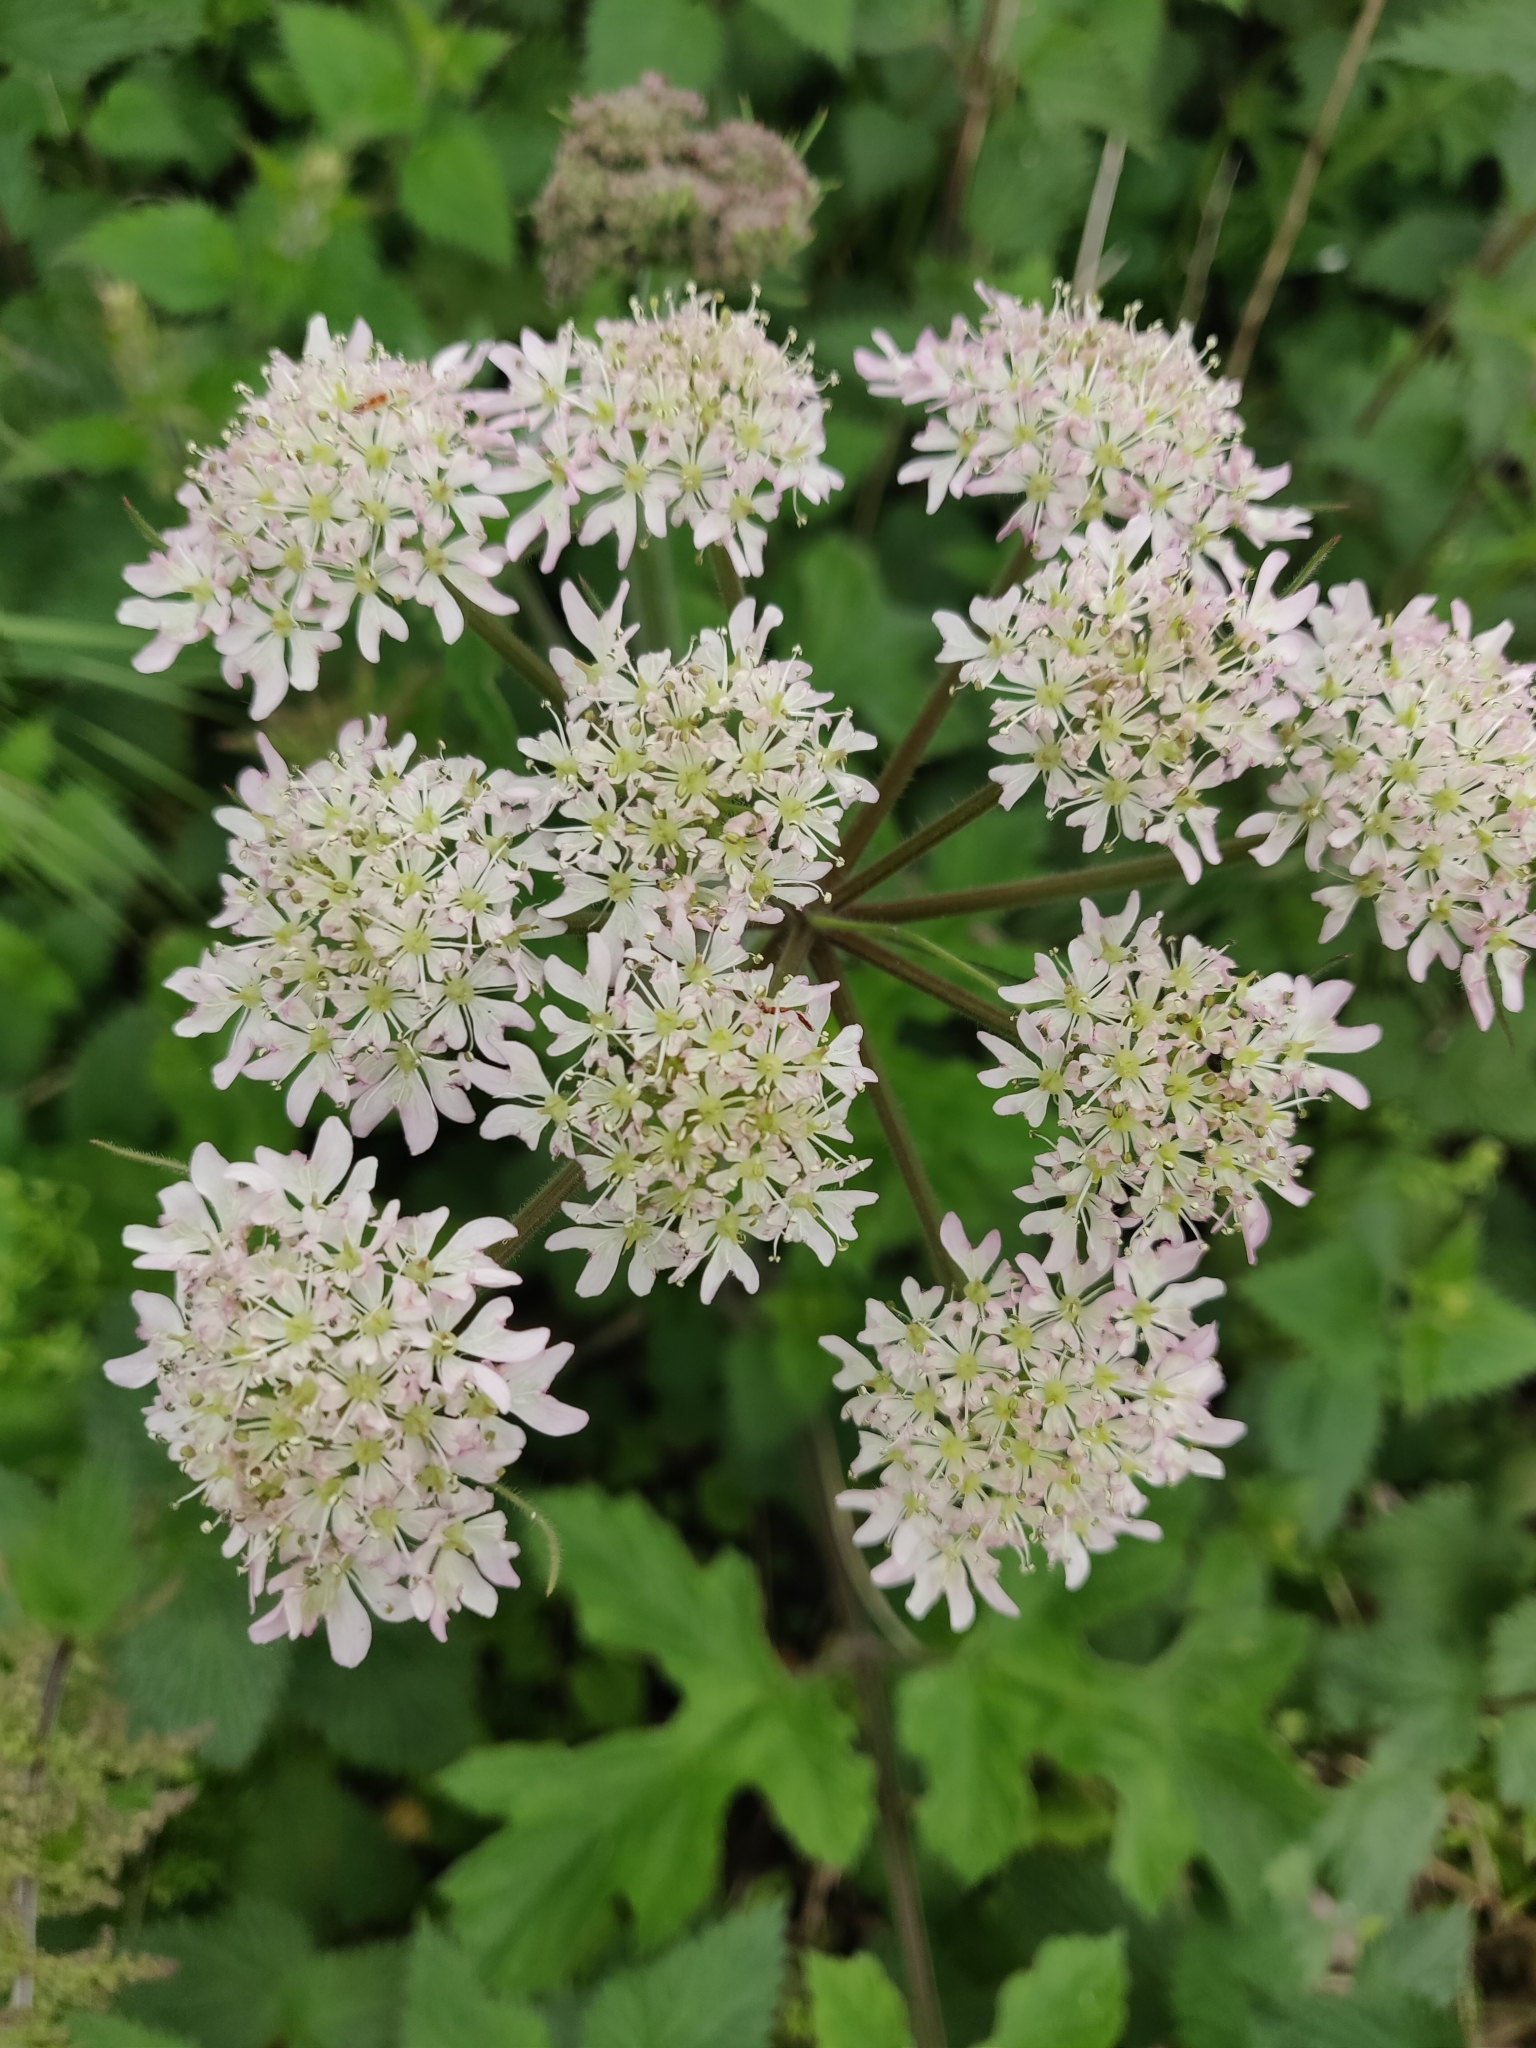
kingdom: Plantae
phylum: Tracheophyta
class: Magnoliopsida
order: Apiales
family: Apiaceae
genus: Heracleum
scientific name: Heracleum sphondylium
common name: Hogweed
